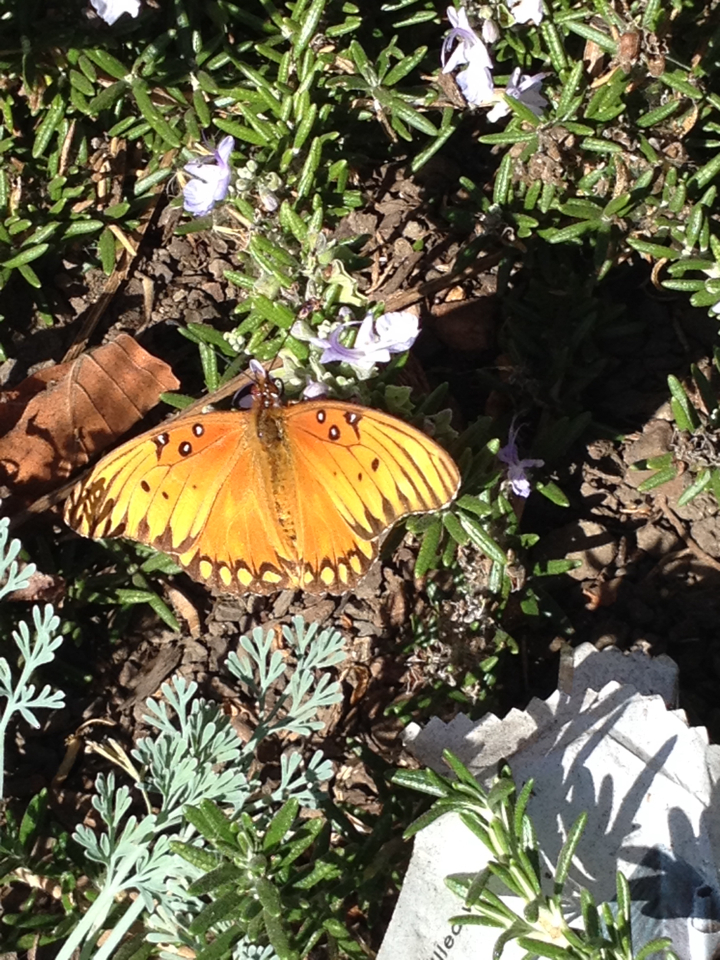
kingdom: Animalia
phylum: Arthropoda
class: Insecta
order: Lepidoptera
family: Nymphalidae
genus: Dione
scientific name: Dione vanillae
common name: Gulf fritillary
